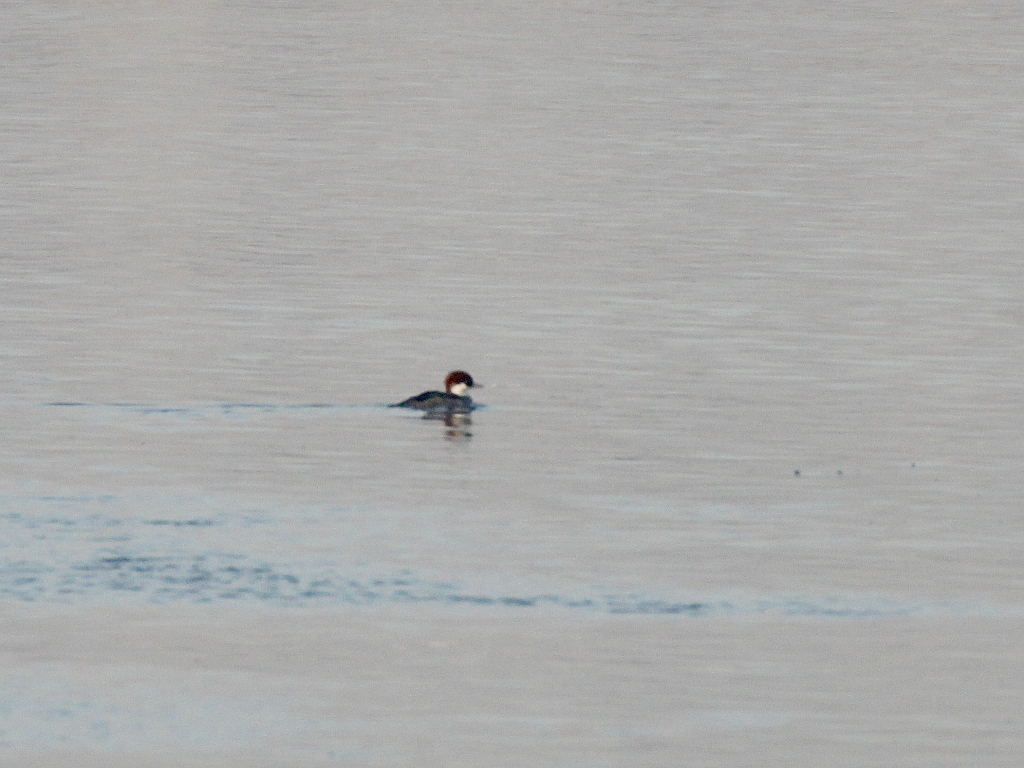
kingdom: Animalia
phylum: Chordata
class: Aves
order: Anseriformes
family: Anatidae
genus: Mergellus
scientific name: Mergellus albellus
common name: Smew
